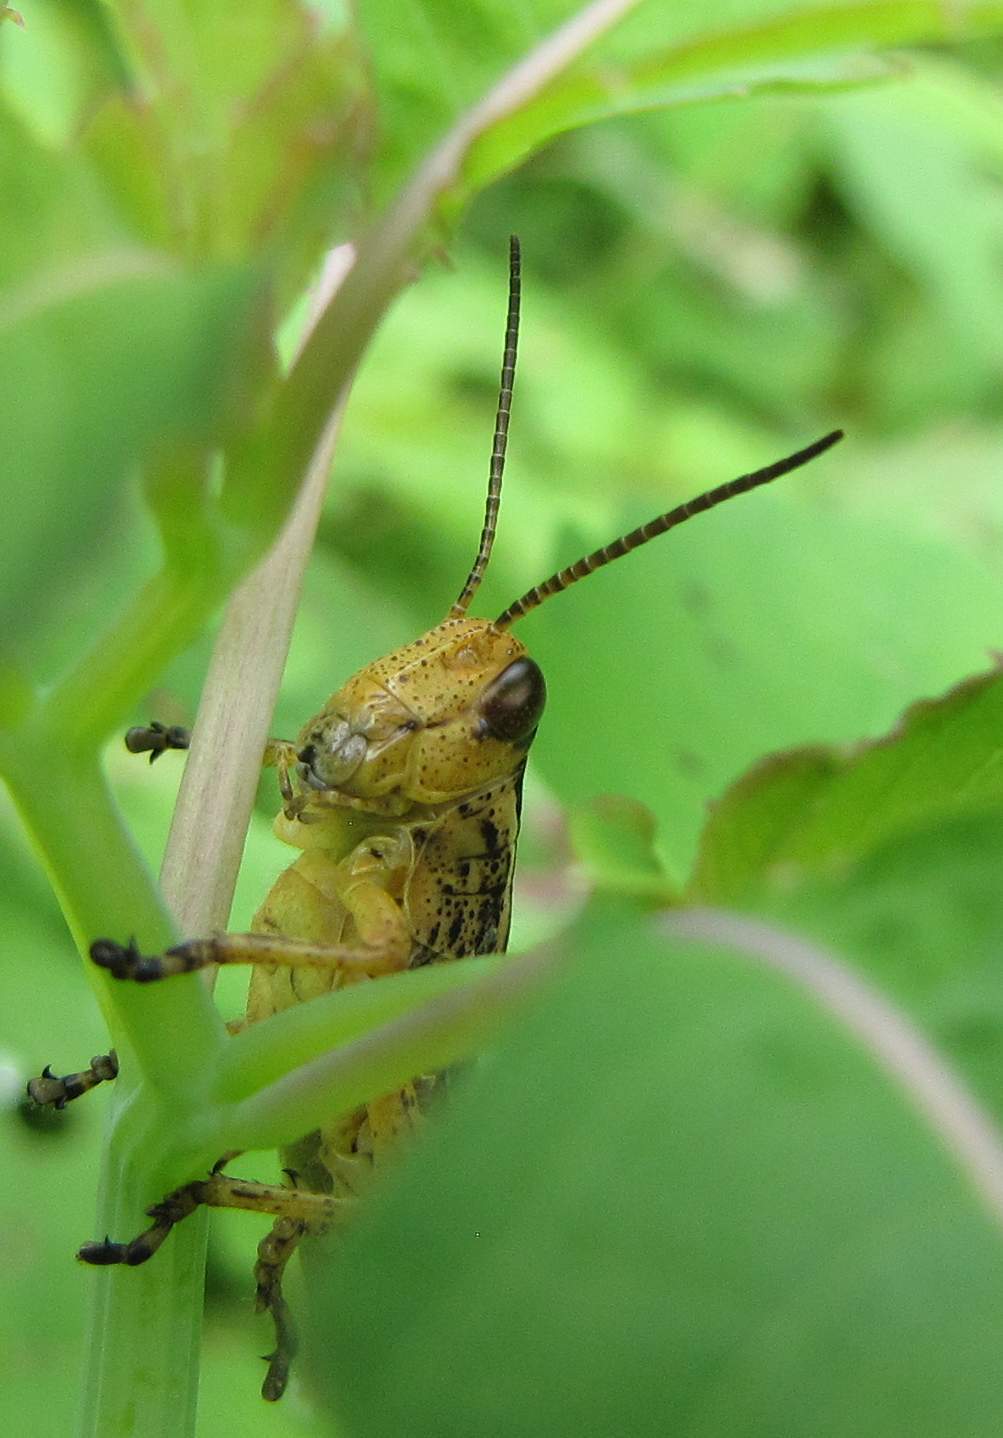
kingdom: Animalia
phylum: Arthropoda
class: Insecta
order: Orthoptera
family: Acrididae
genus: Melanoplus
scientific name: Melanoplus bivittatus
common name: Two-striped grasshopper
